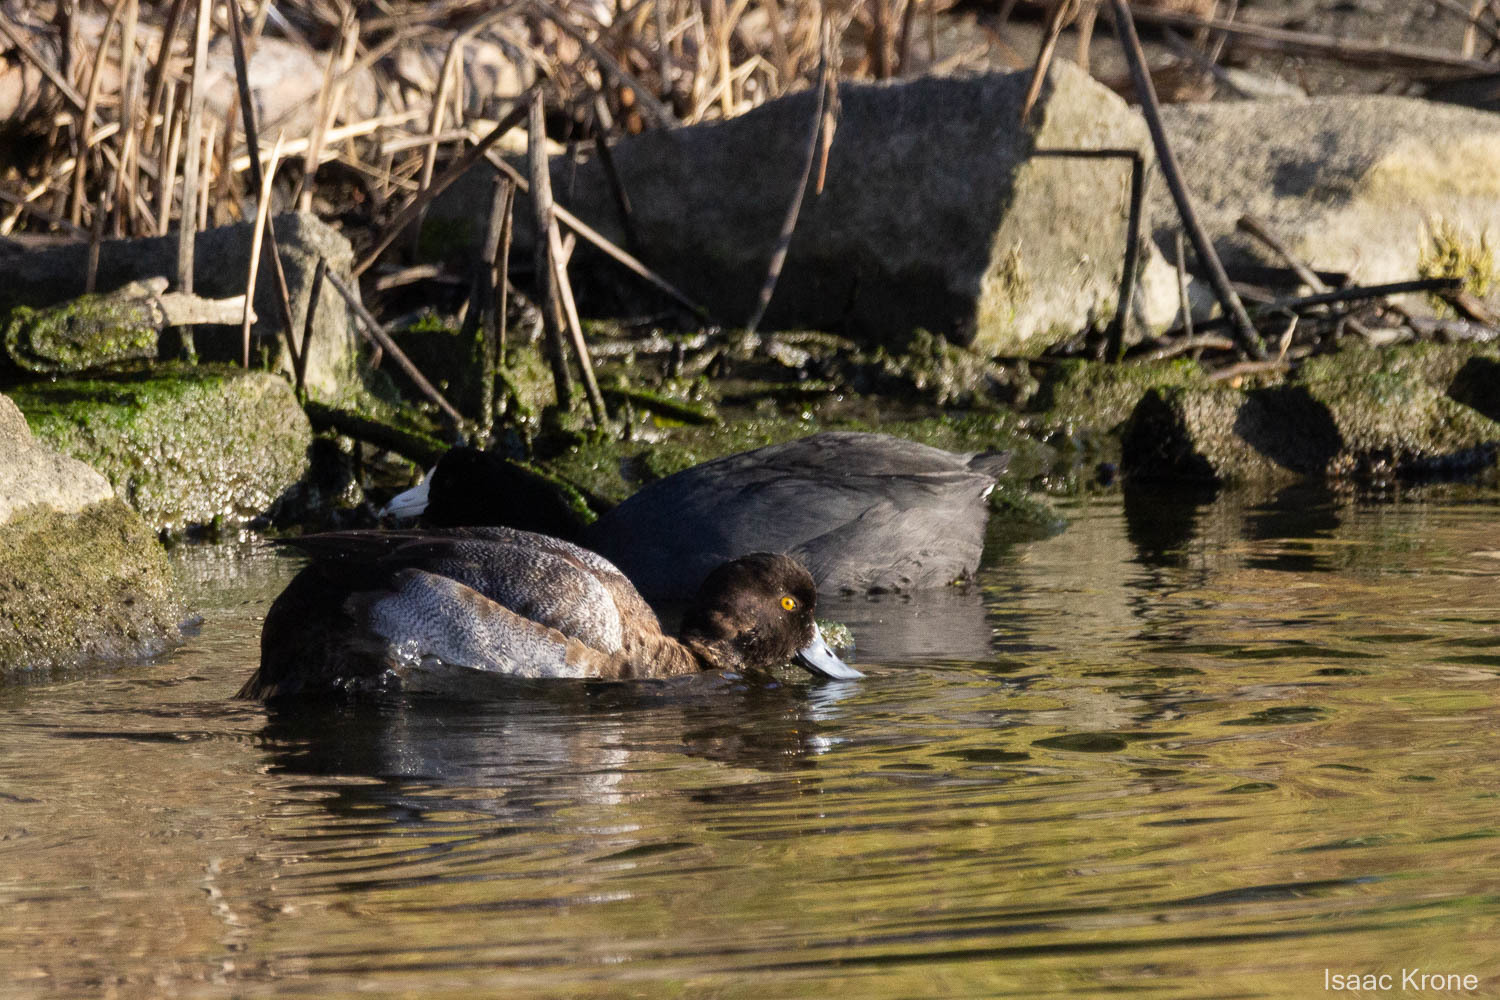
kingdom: Animalia
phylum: Chordata
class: Aves
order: Anseriformes
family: Anatidae
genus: Aythya
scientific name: Aythya affinis
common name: Lesser scaup
